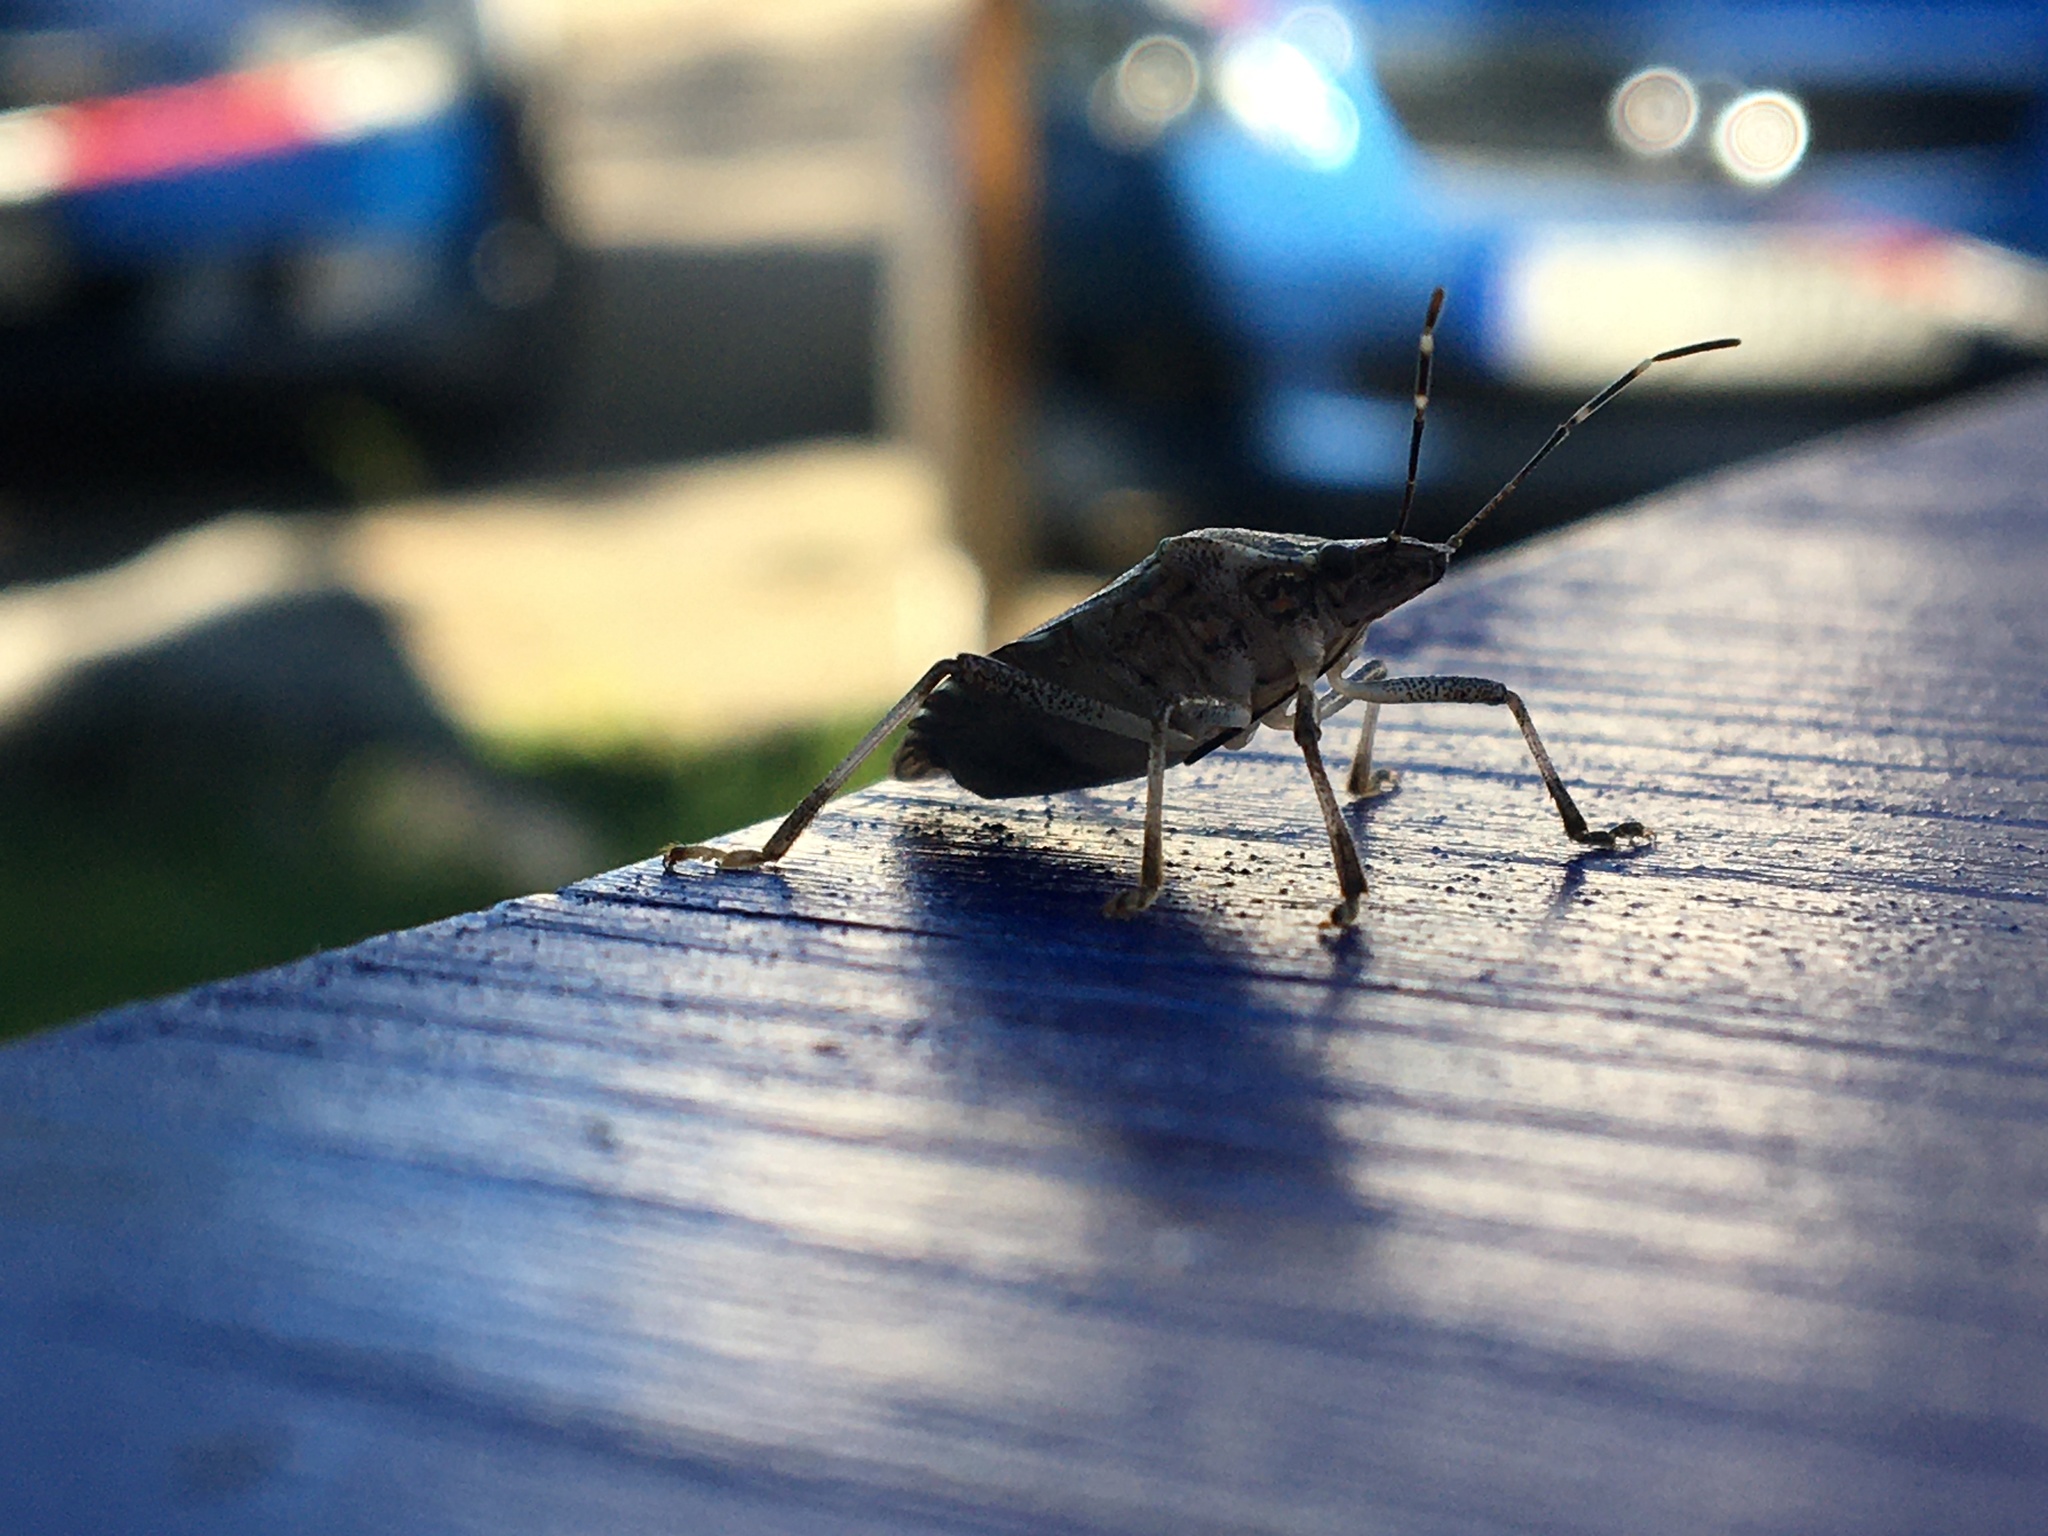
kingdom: Animalia
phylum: Arthropoda
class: Insecta
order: Hemiptera
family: Pentatomidae
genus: Halyomorpha
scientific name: Halyomorpha halys
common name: Brown marmorated stink bug
